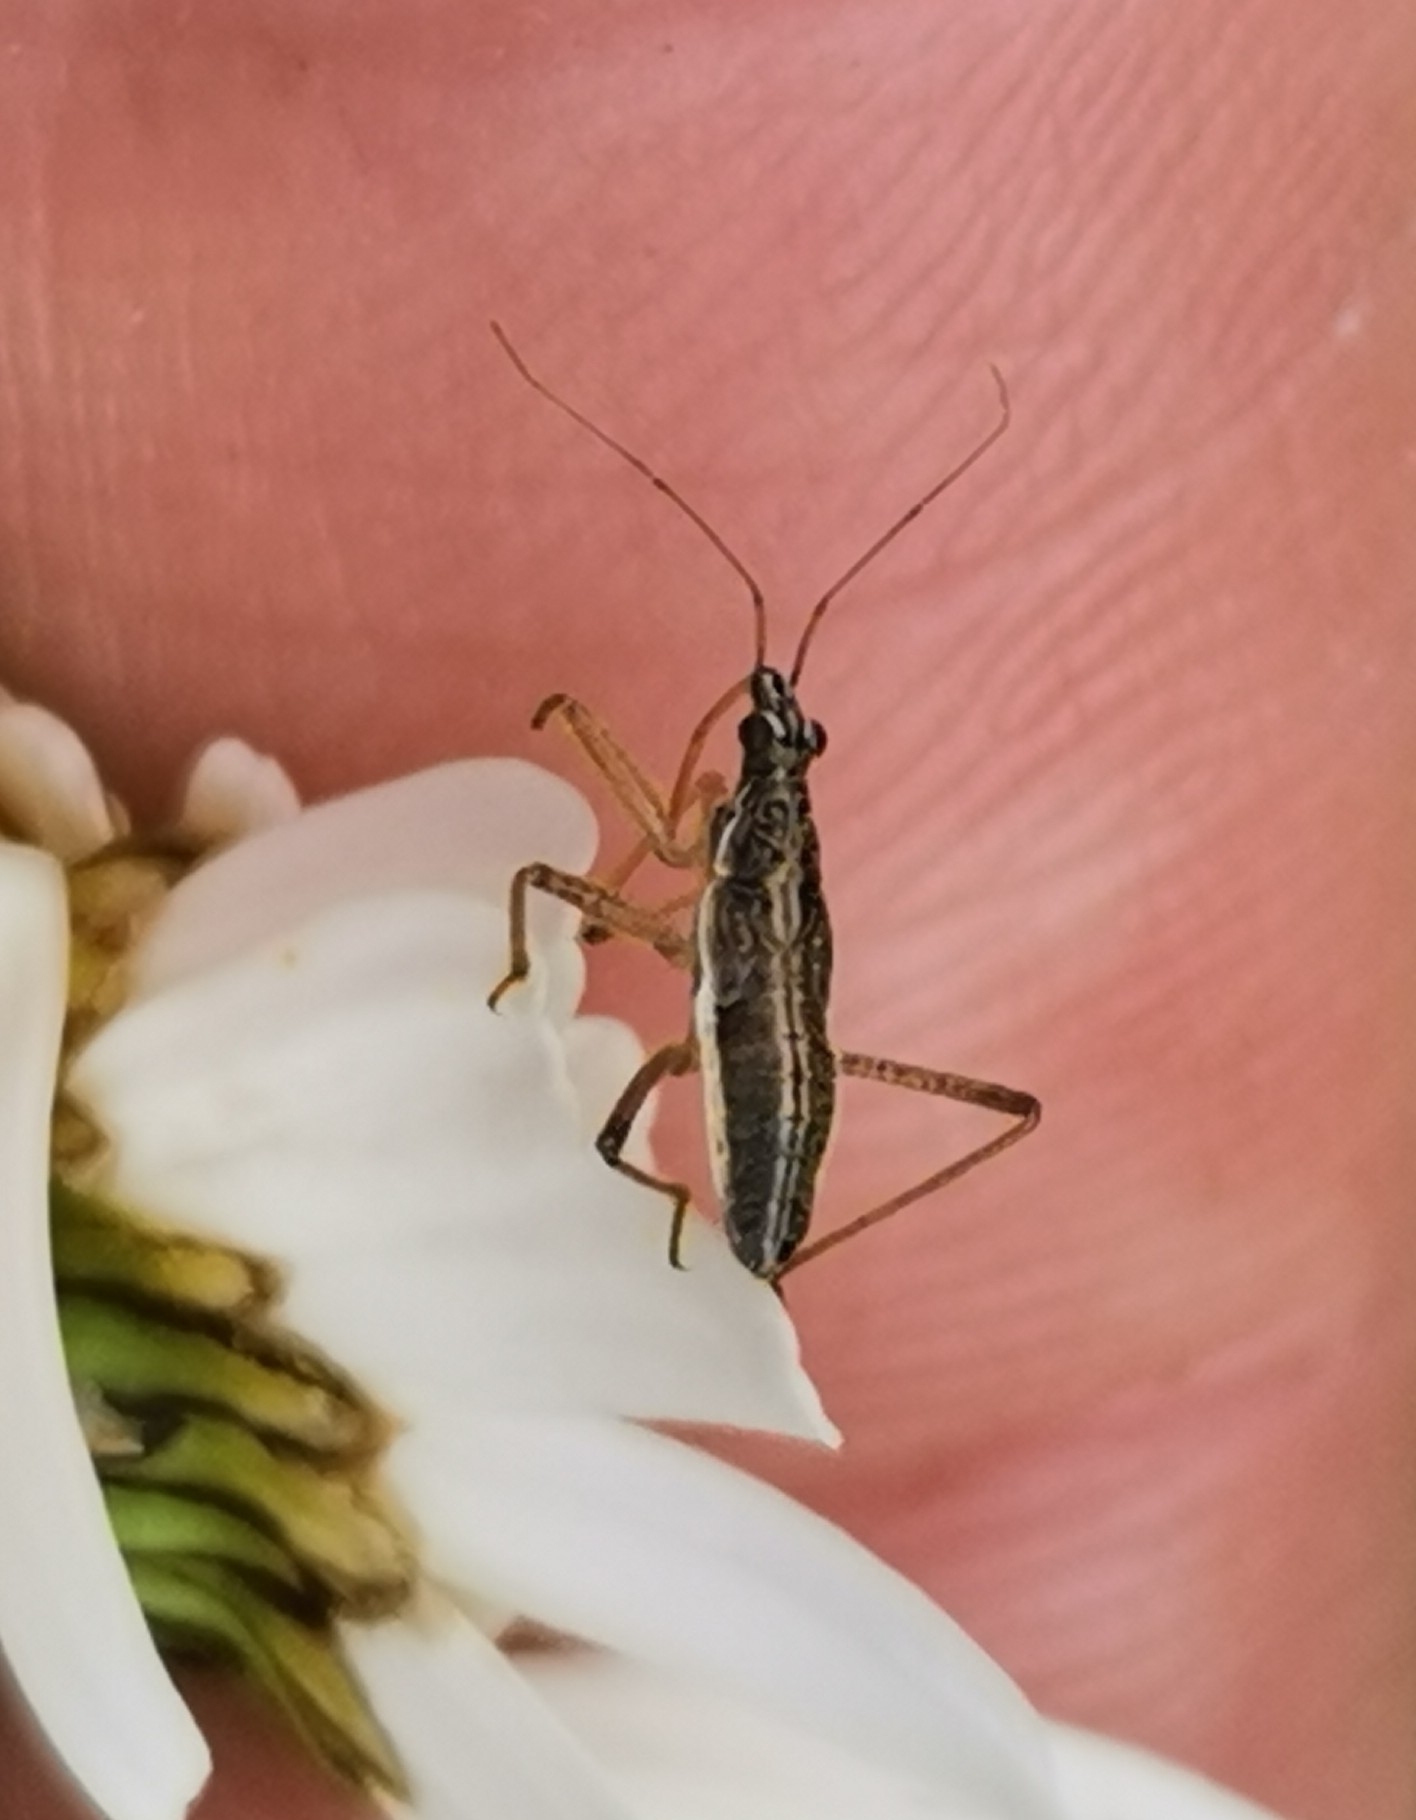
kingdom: Animalia
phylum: Arthropoda
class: Insecta
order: Hemiptera
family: Nabidae
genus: Nabis
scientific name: Nabis flavomarginatus
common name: Broad damselbug
